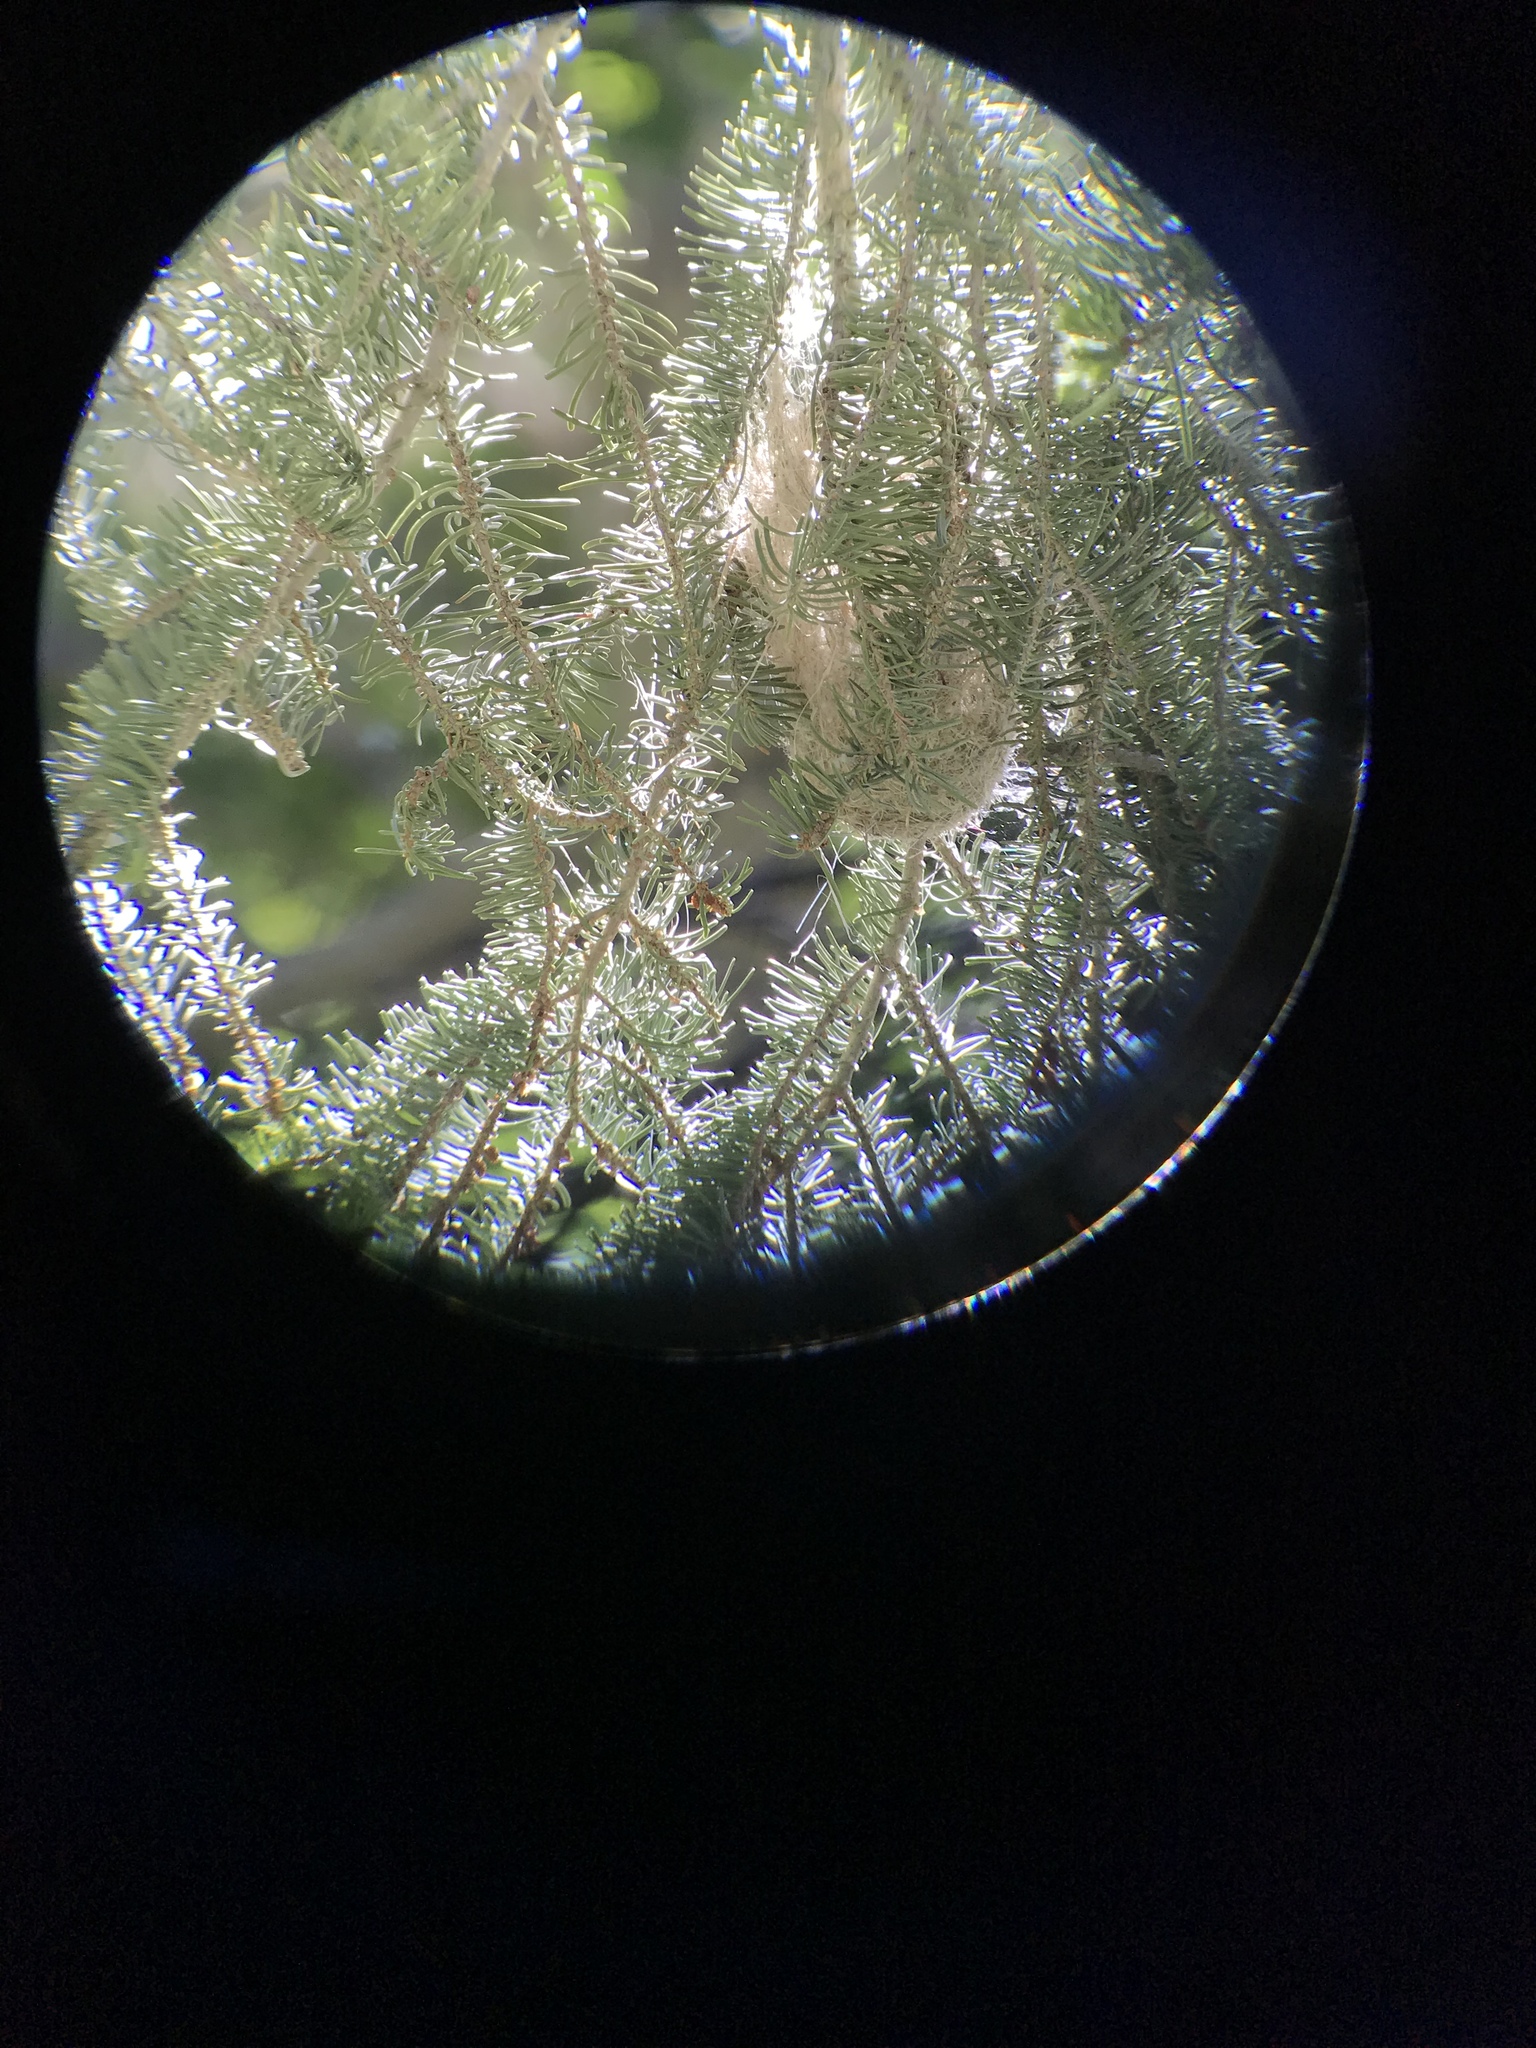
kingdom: Animalia
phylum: Chordata
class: Aves
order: Passeriformes
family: Icteridae
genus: Icterus
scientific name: Icterus bullockii
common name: Bullock's oriole
